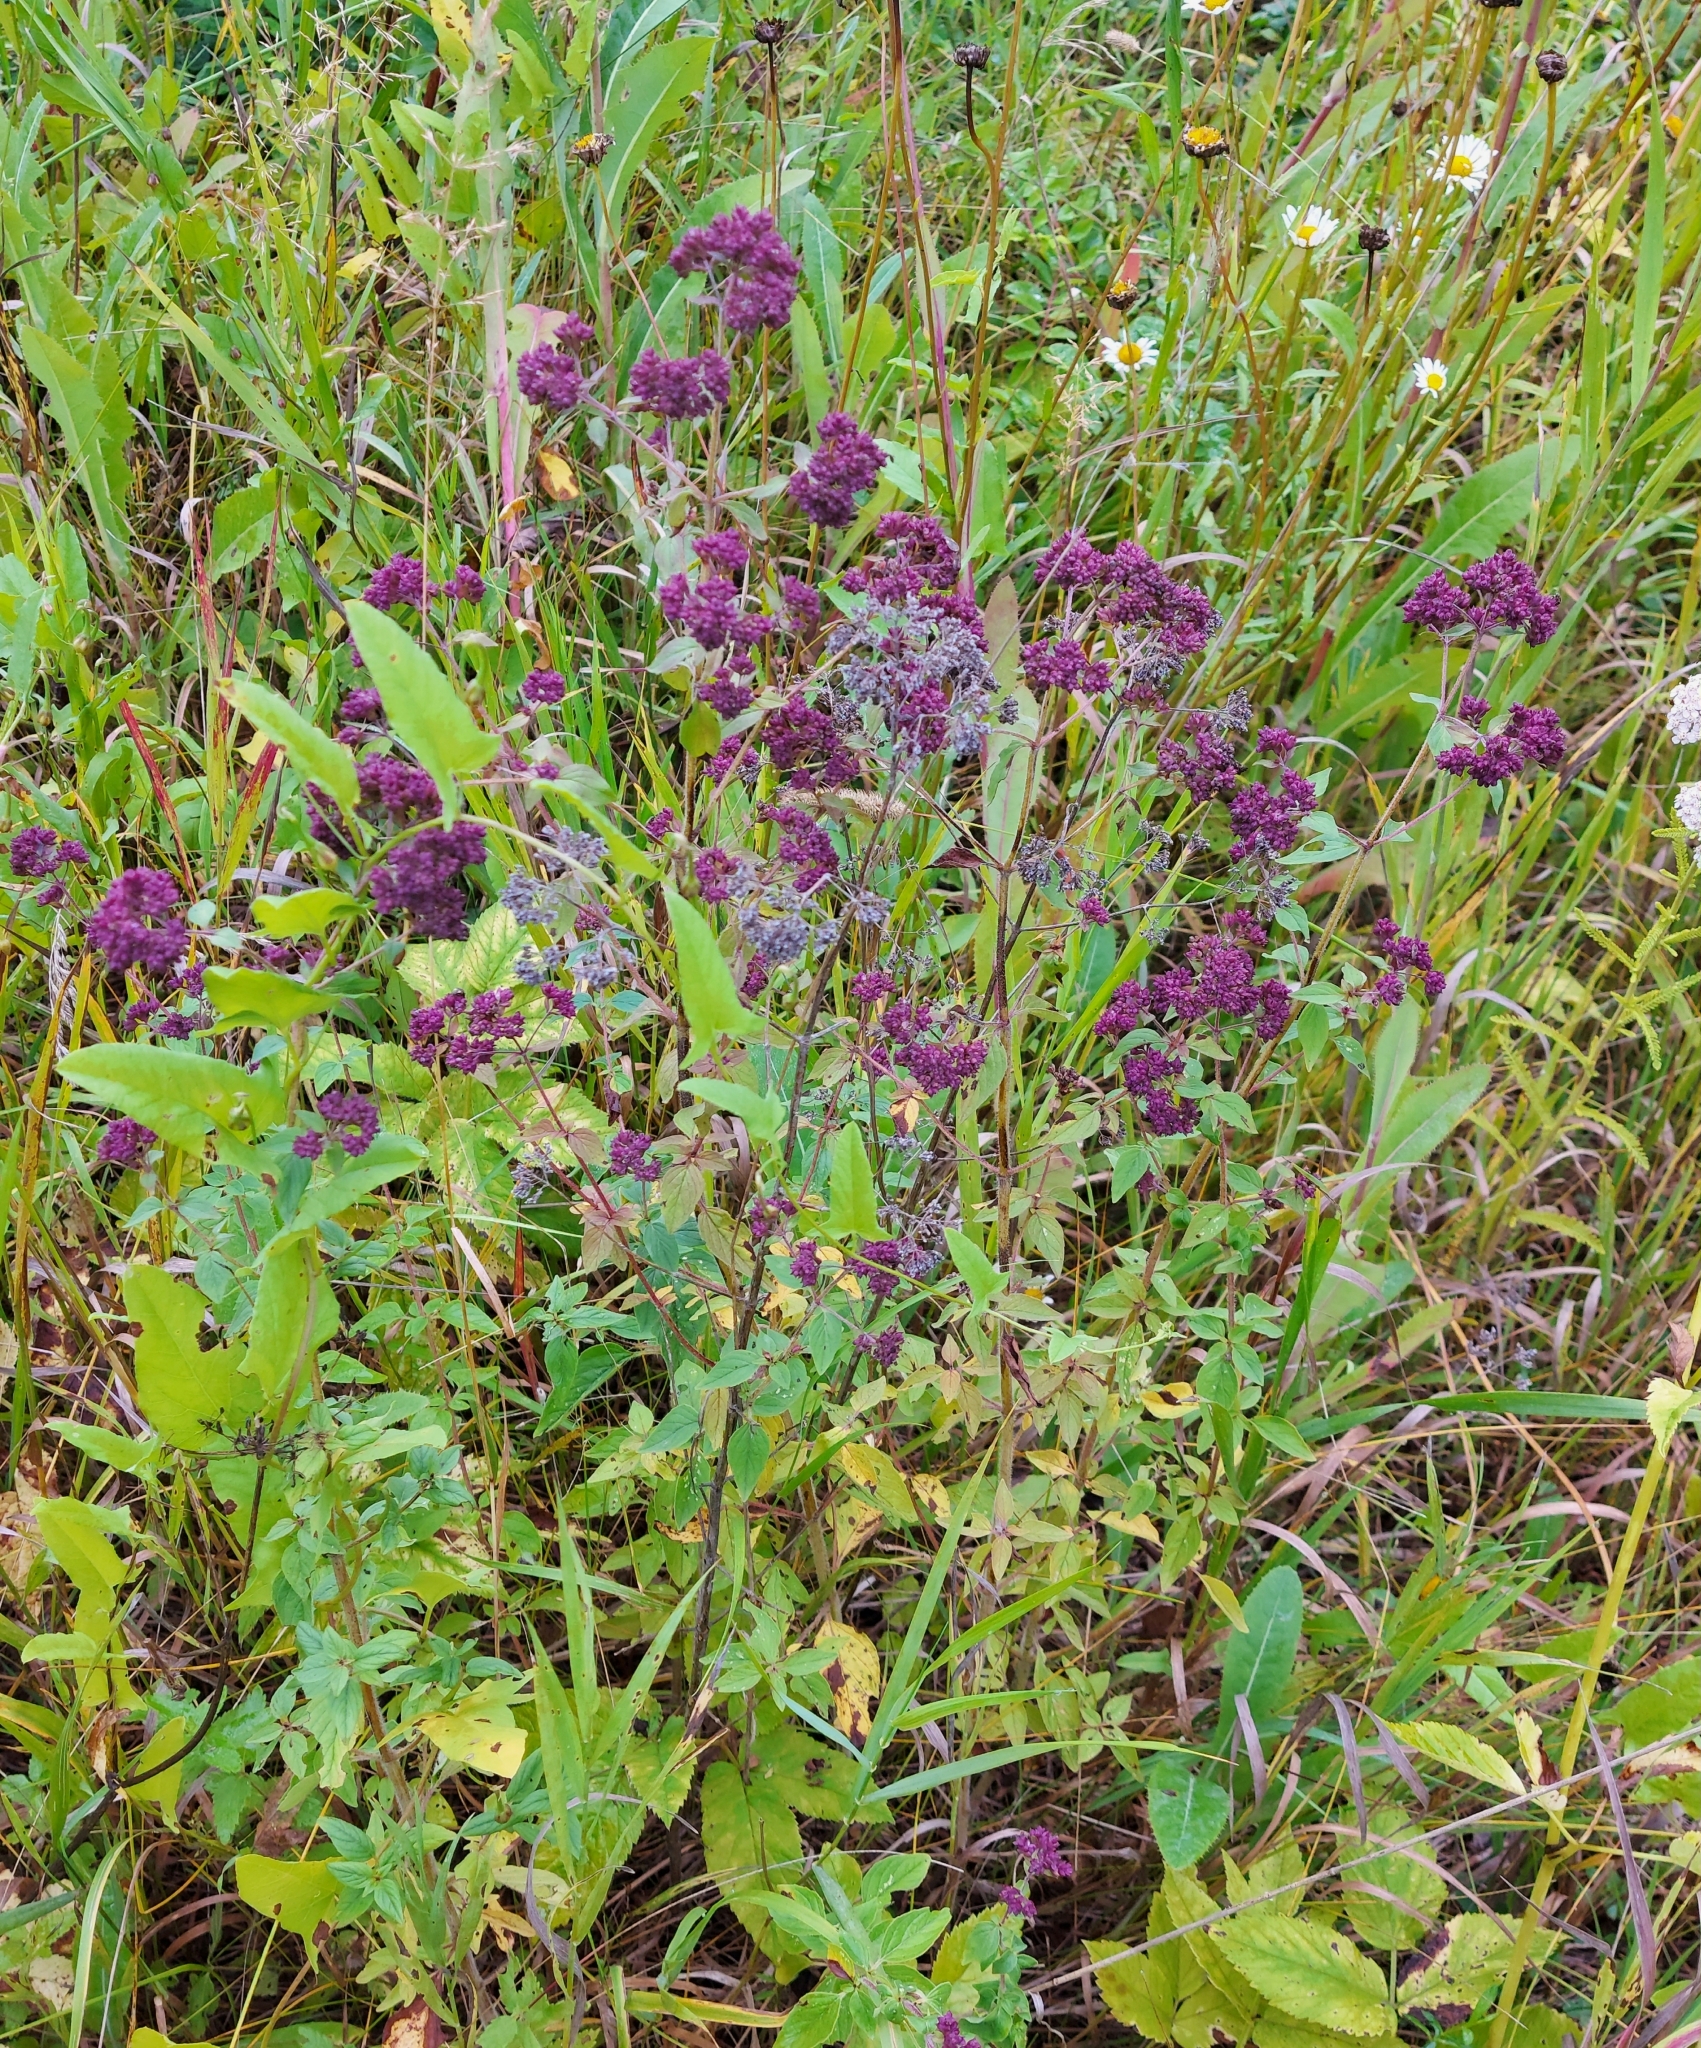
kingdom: Plantae
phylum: Tracheophyta
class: Magnoliopsida
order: Lamiales
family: Lamiaceae
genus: Origanum
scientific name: Origanum vulgare
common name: Wild marjoram
